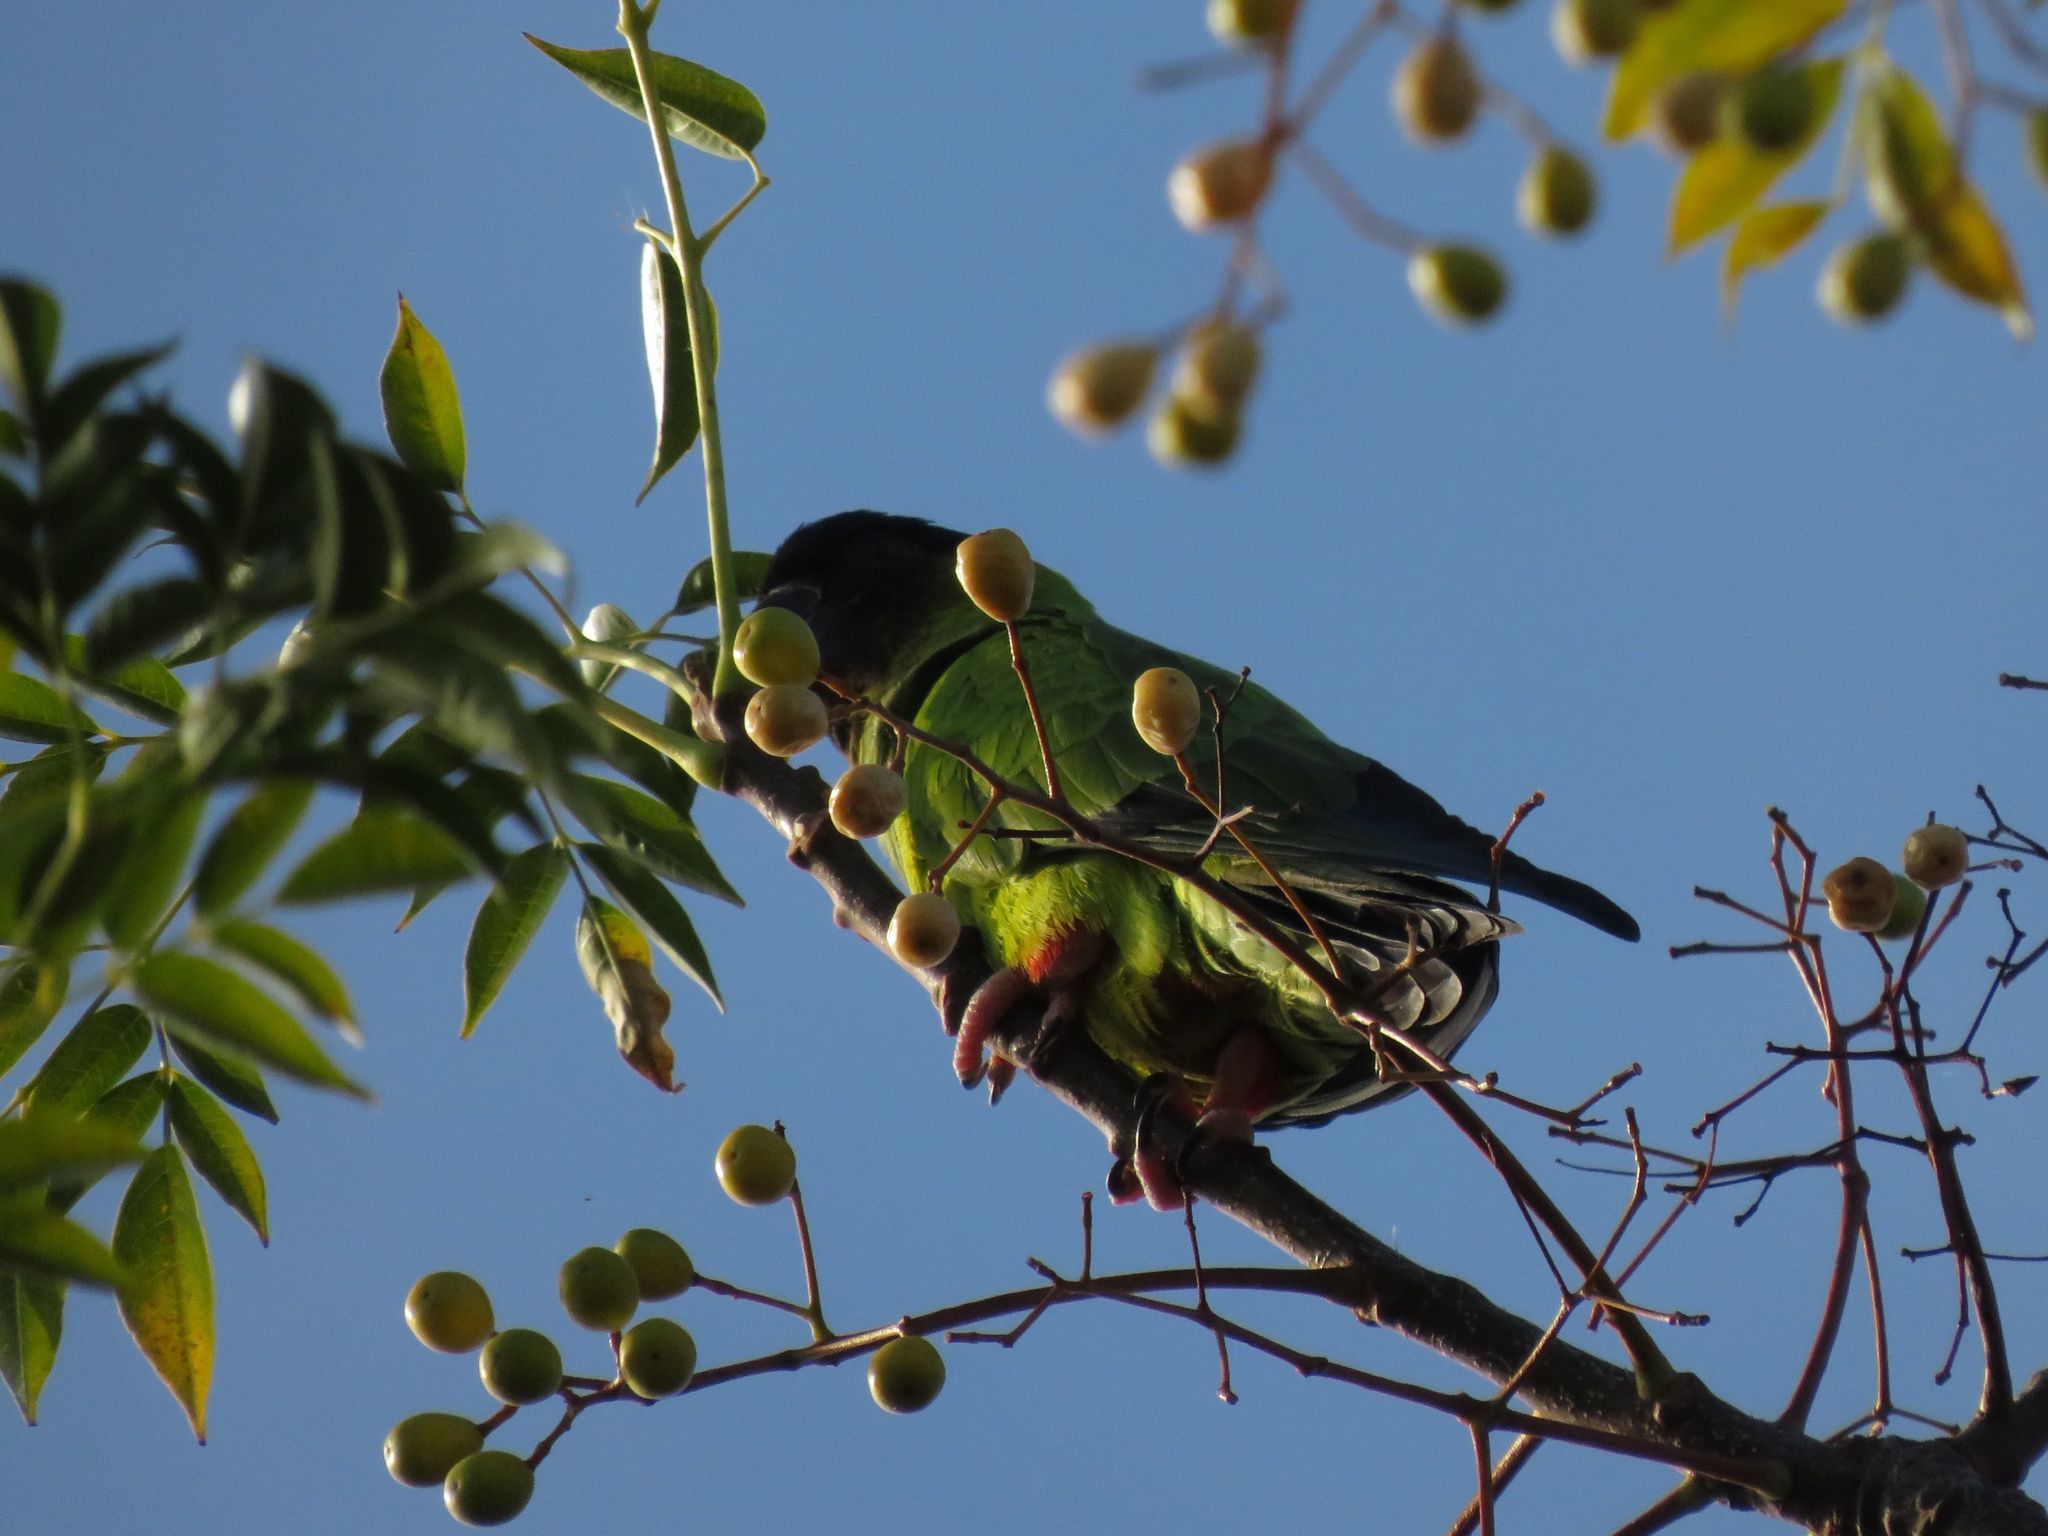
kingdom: Animalia
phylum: Chordata
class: Aves
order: Psittaciformes
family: Psittacidae
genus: Nandayus
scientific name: Nandayus nenday
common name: Nanday parakeet
